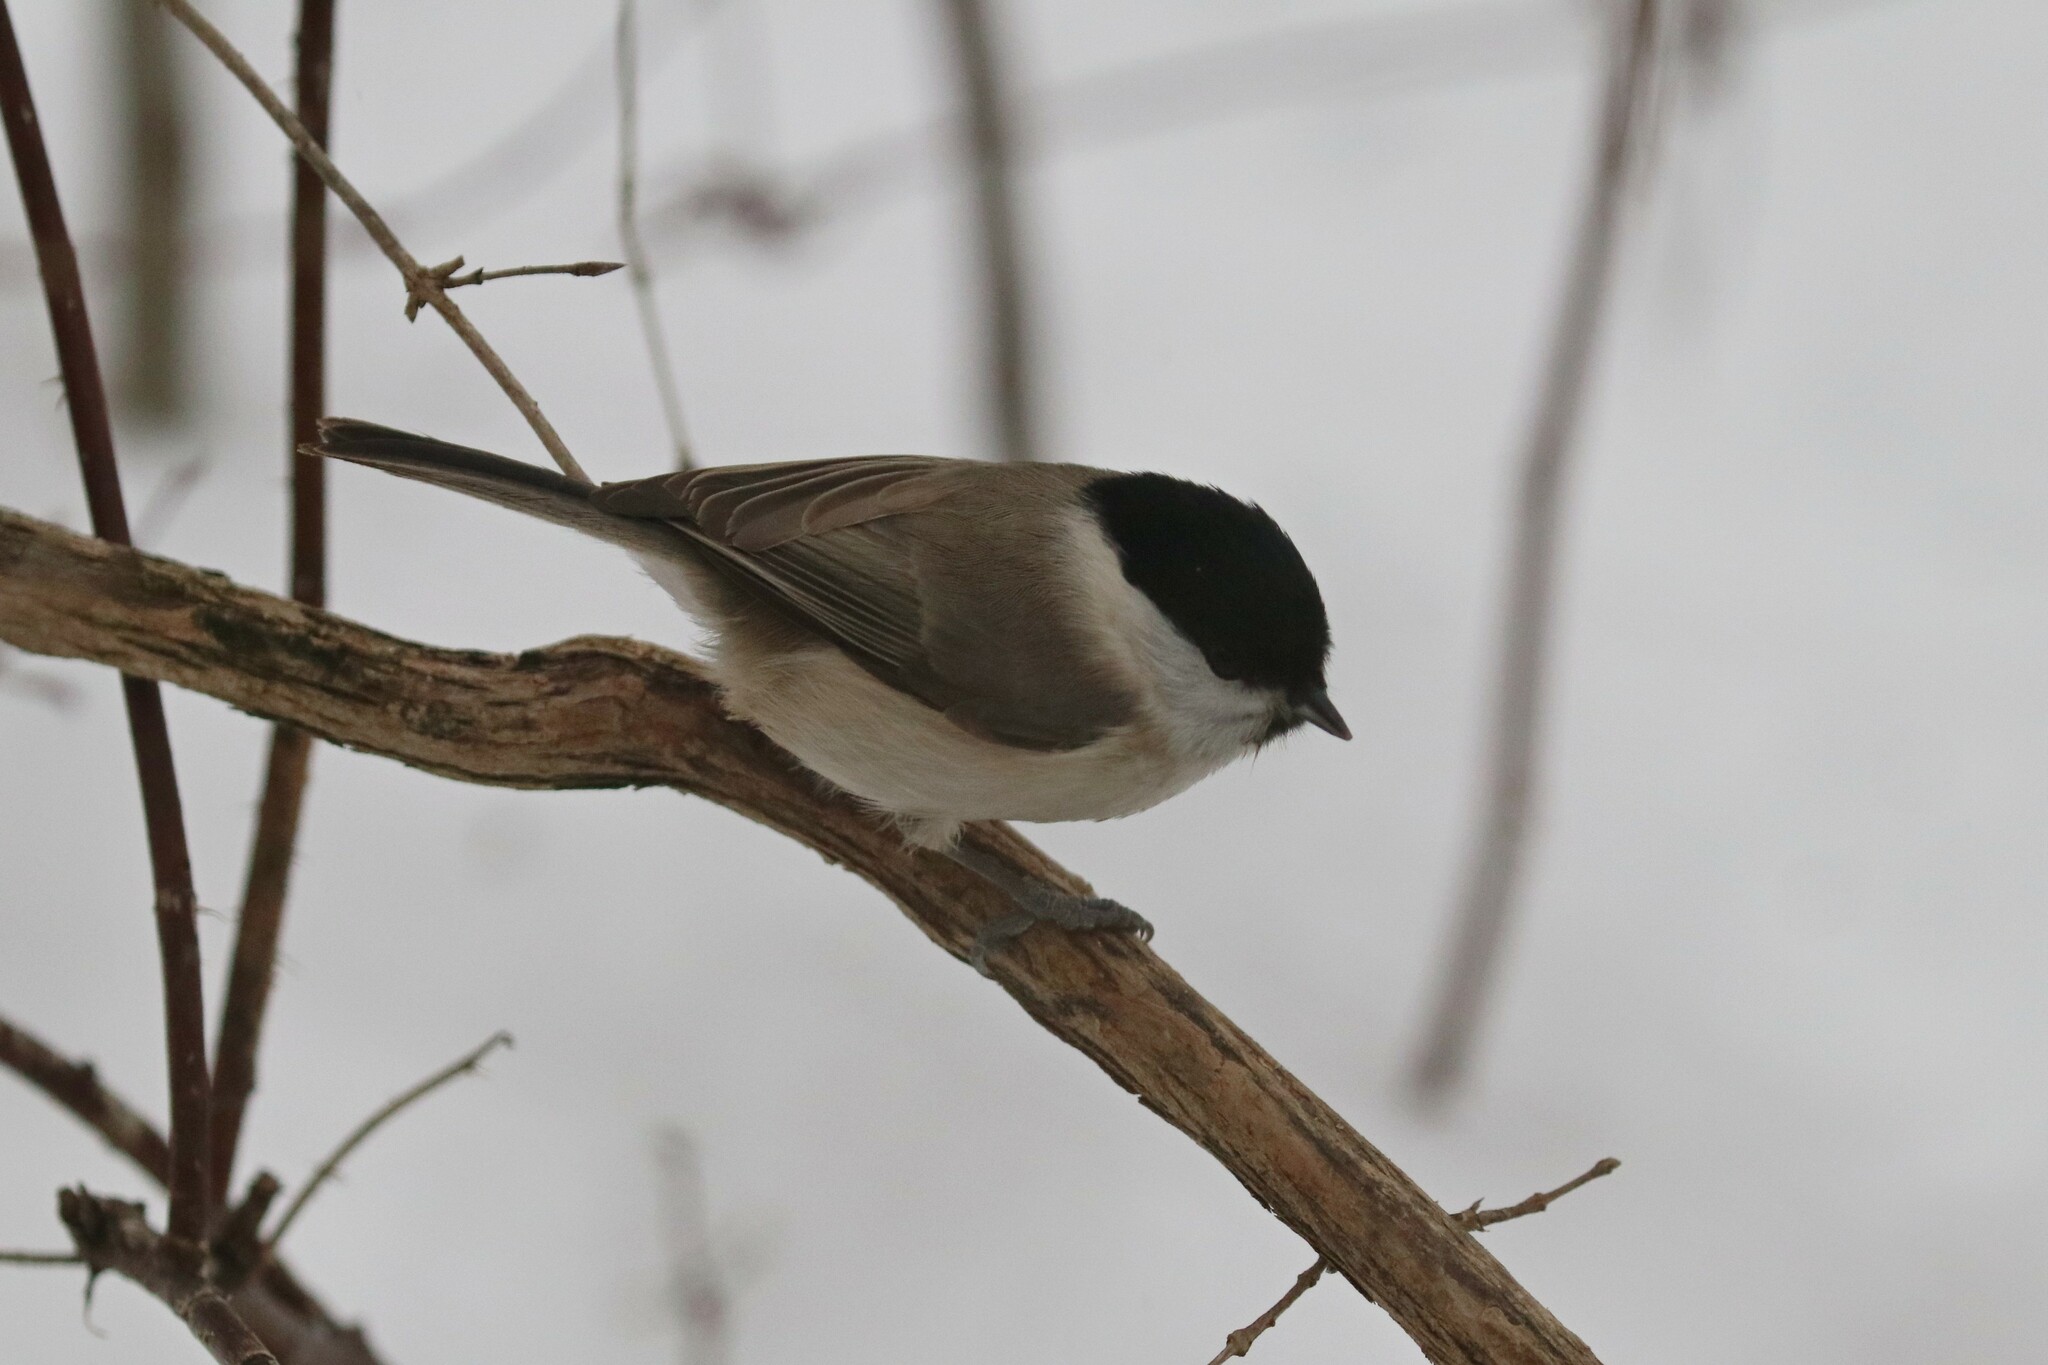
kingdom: Animalia
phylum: Chordata
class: Aves
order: Passeriformes
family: Paridae
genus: Poecile
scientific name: Poecile palustris
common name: Marsh tit
